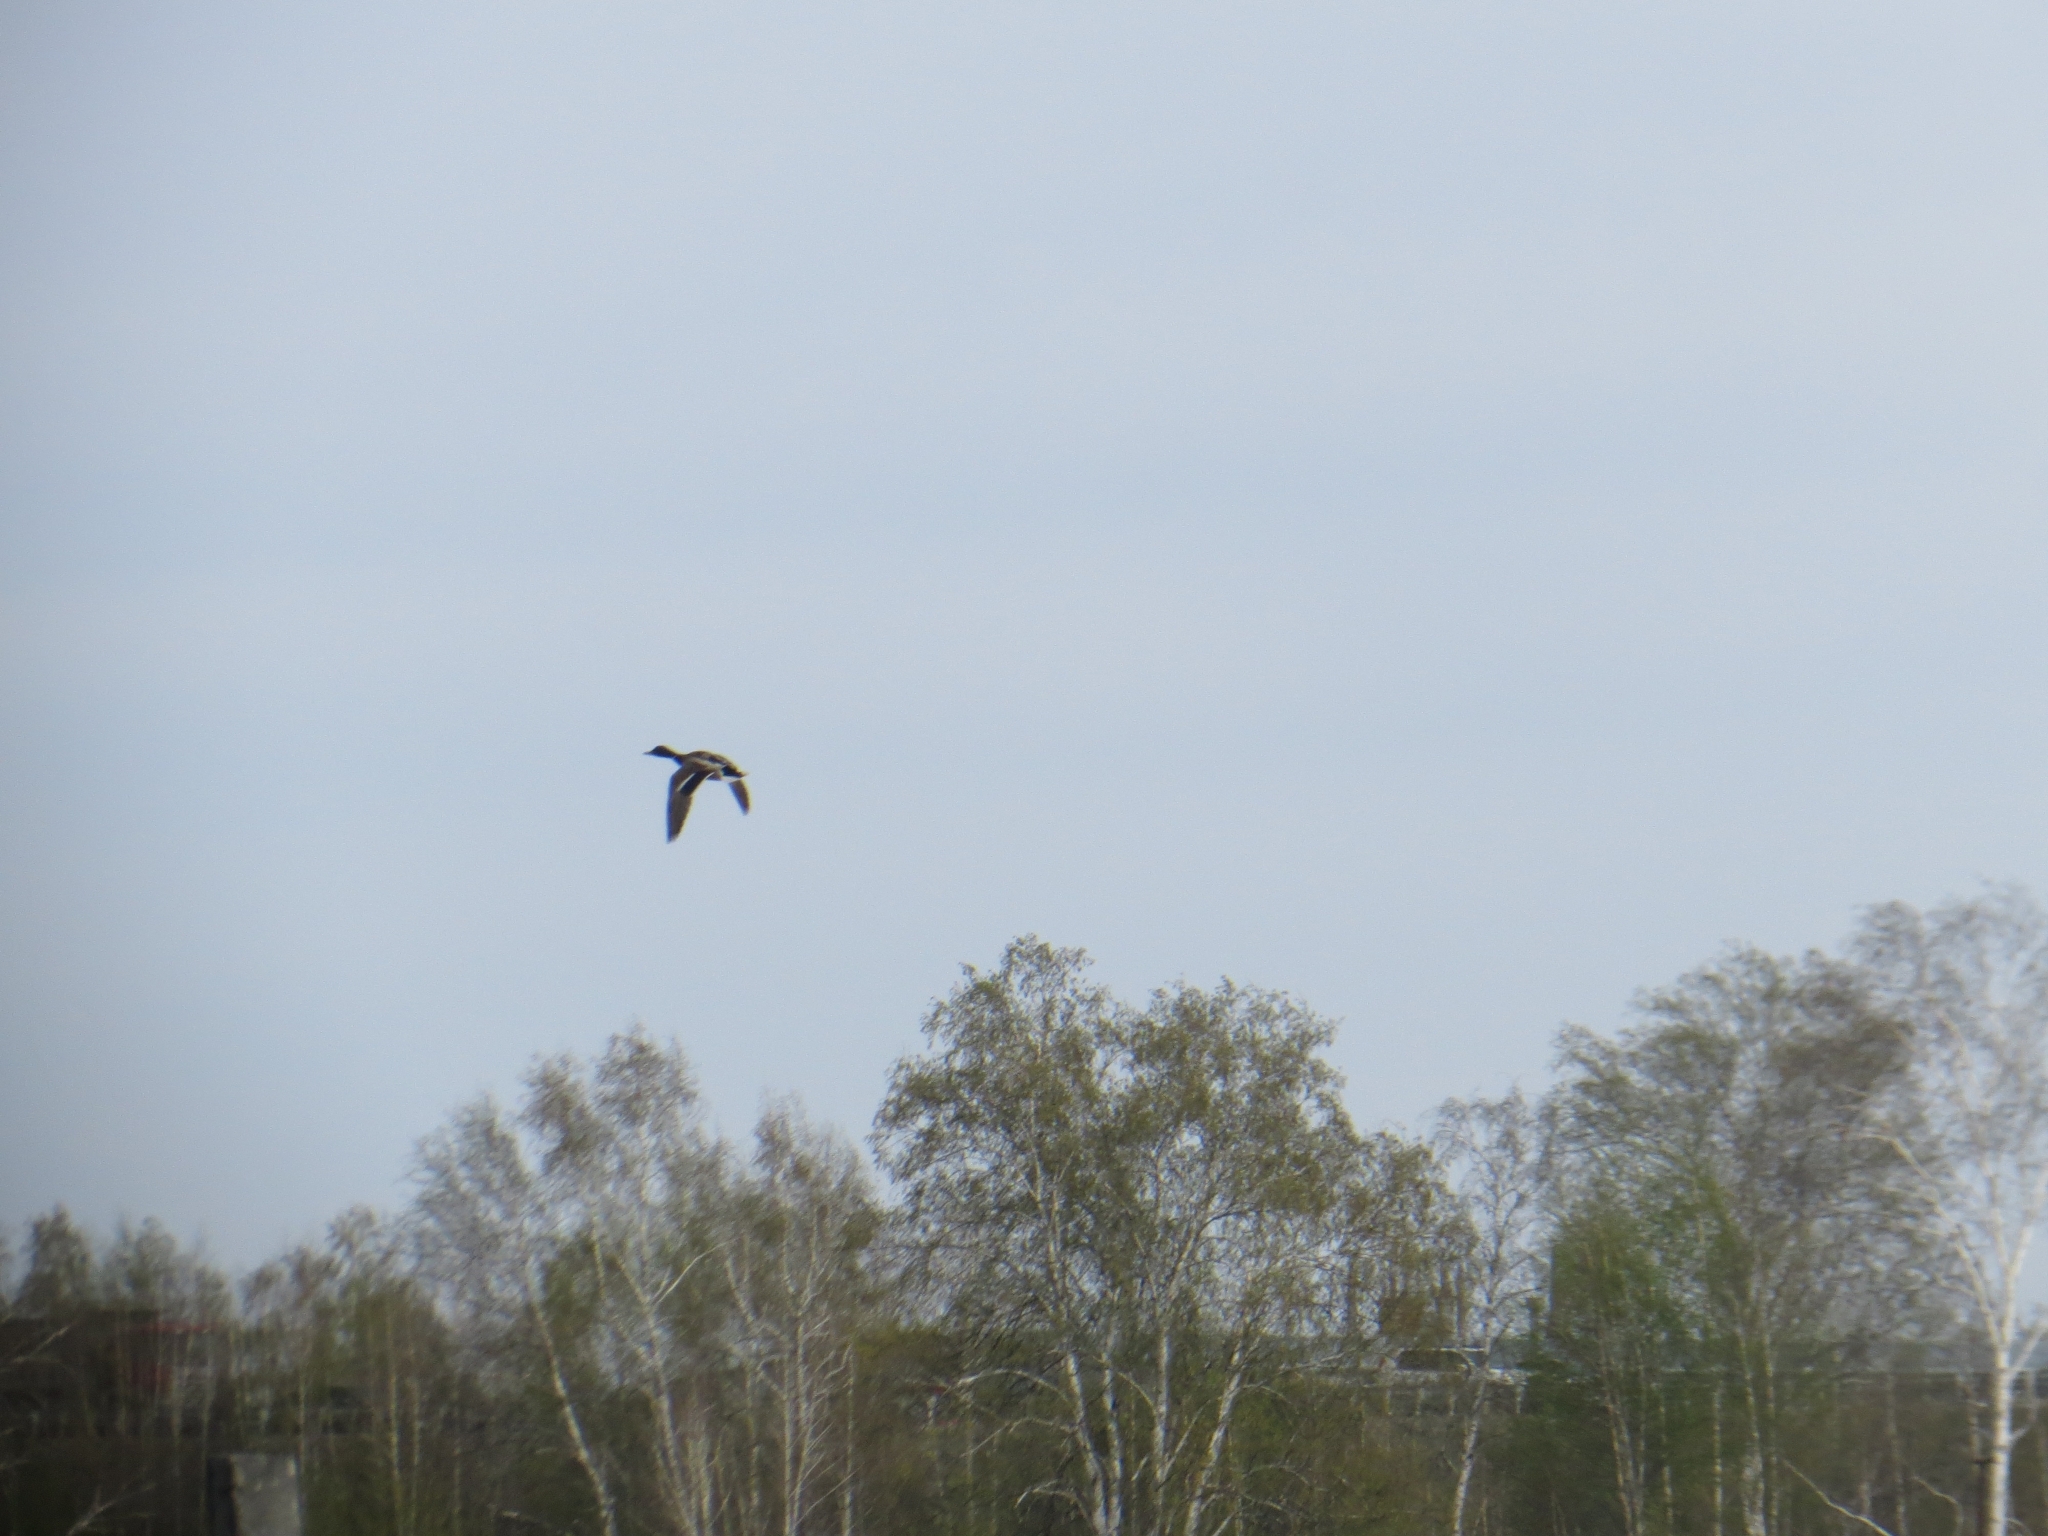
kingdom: Animalia
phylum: Chordata
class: Aves
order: Anseriformes
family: Anatidae
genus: Anas
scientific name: Anas platyrhynchos
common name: Mallard
